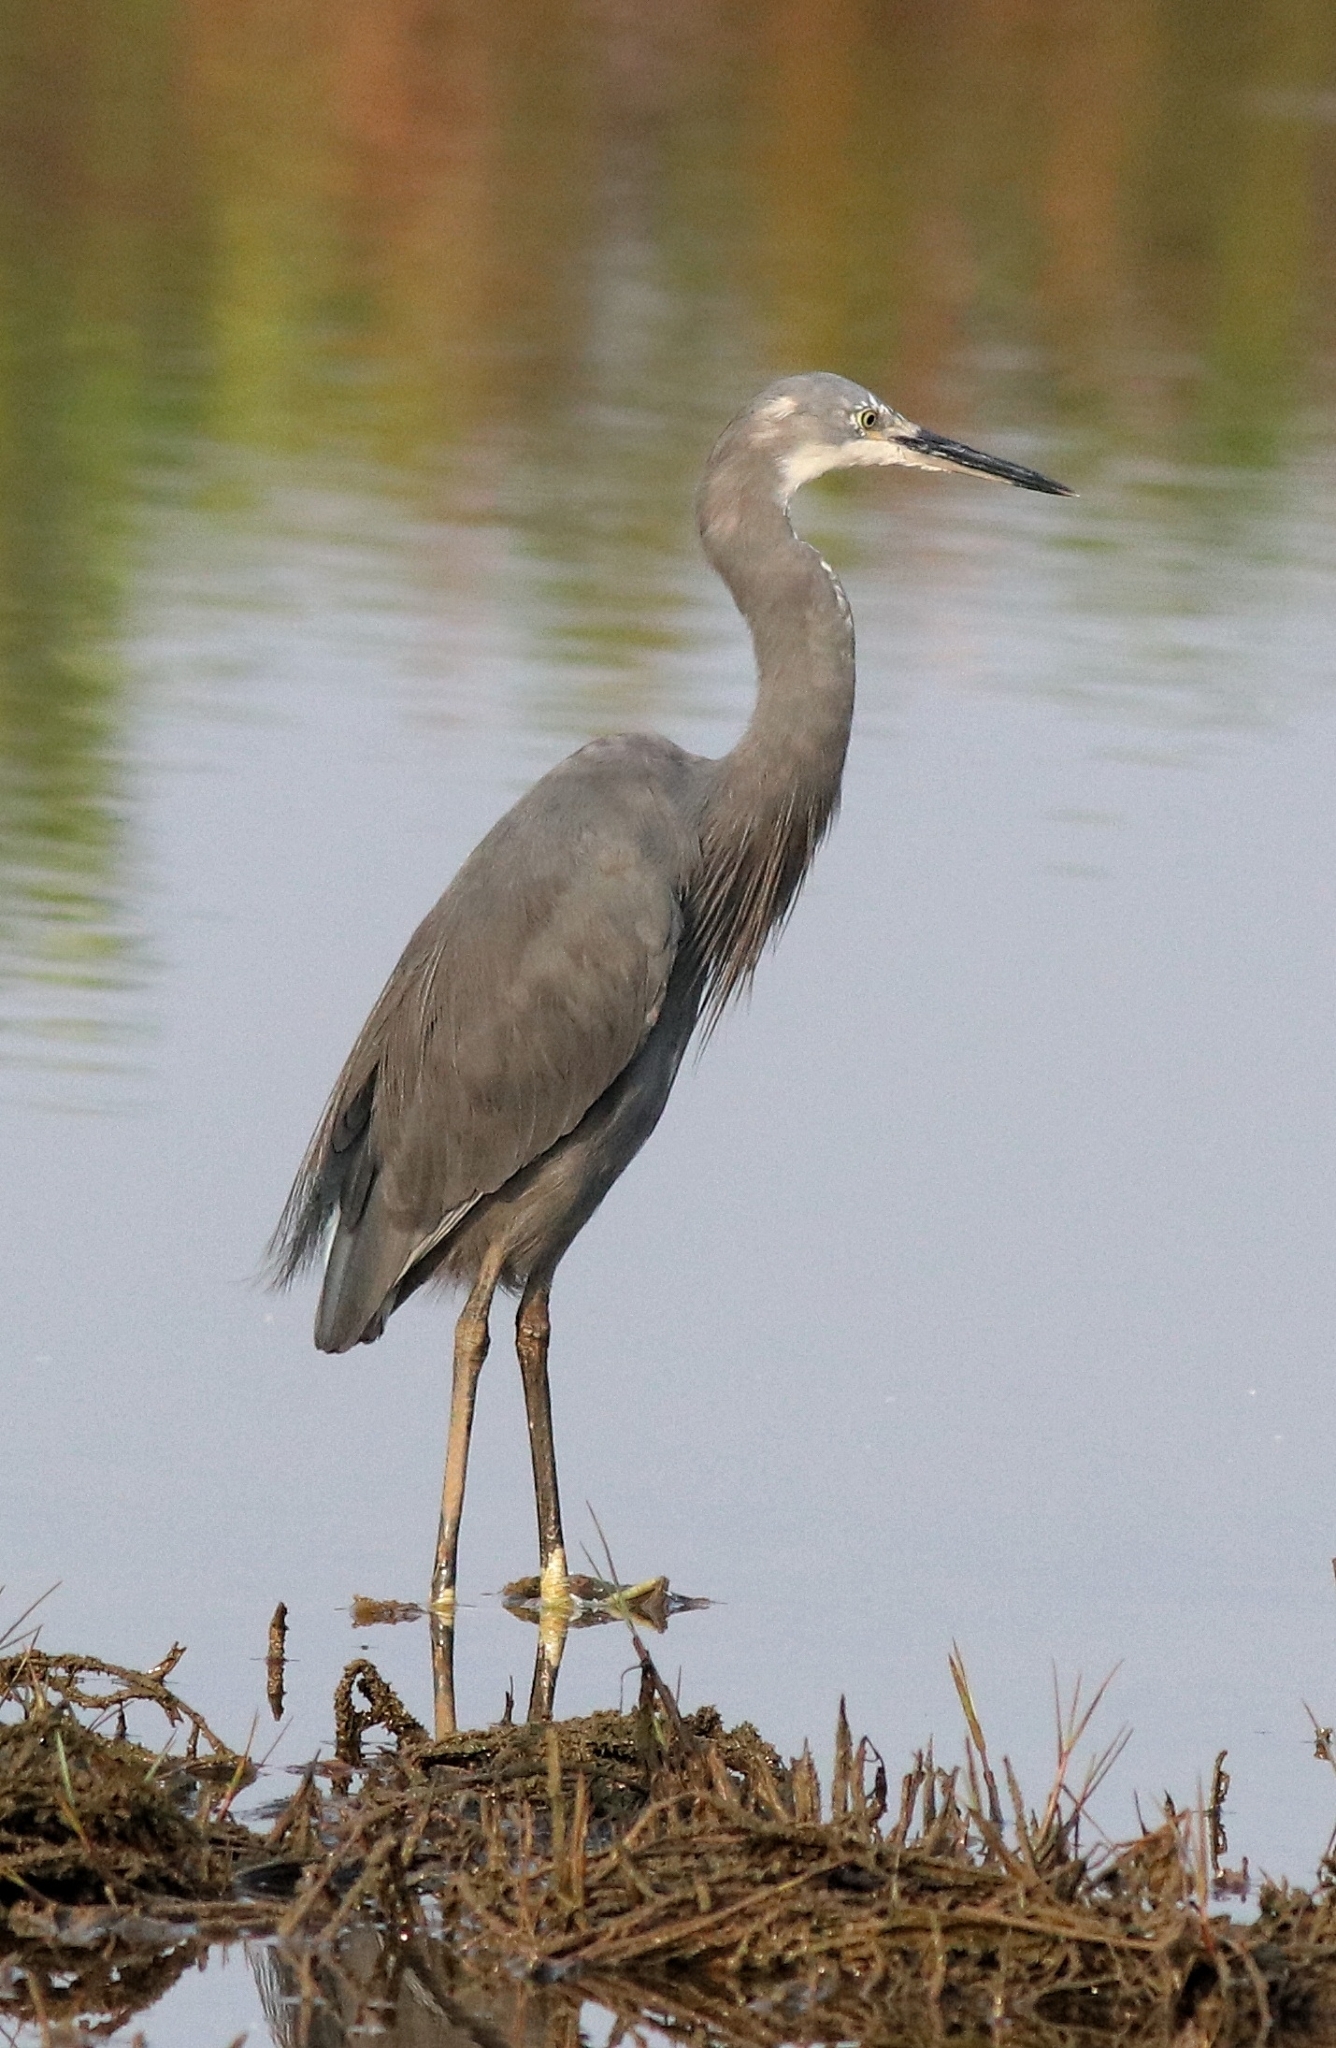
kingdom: Animalia
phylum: Chordata
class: Aves
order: Pelecaniformes
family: Ardeidae
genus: Egretta
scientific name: Egretta garzetta
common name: Little egret
